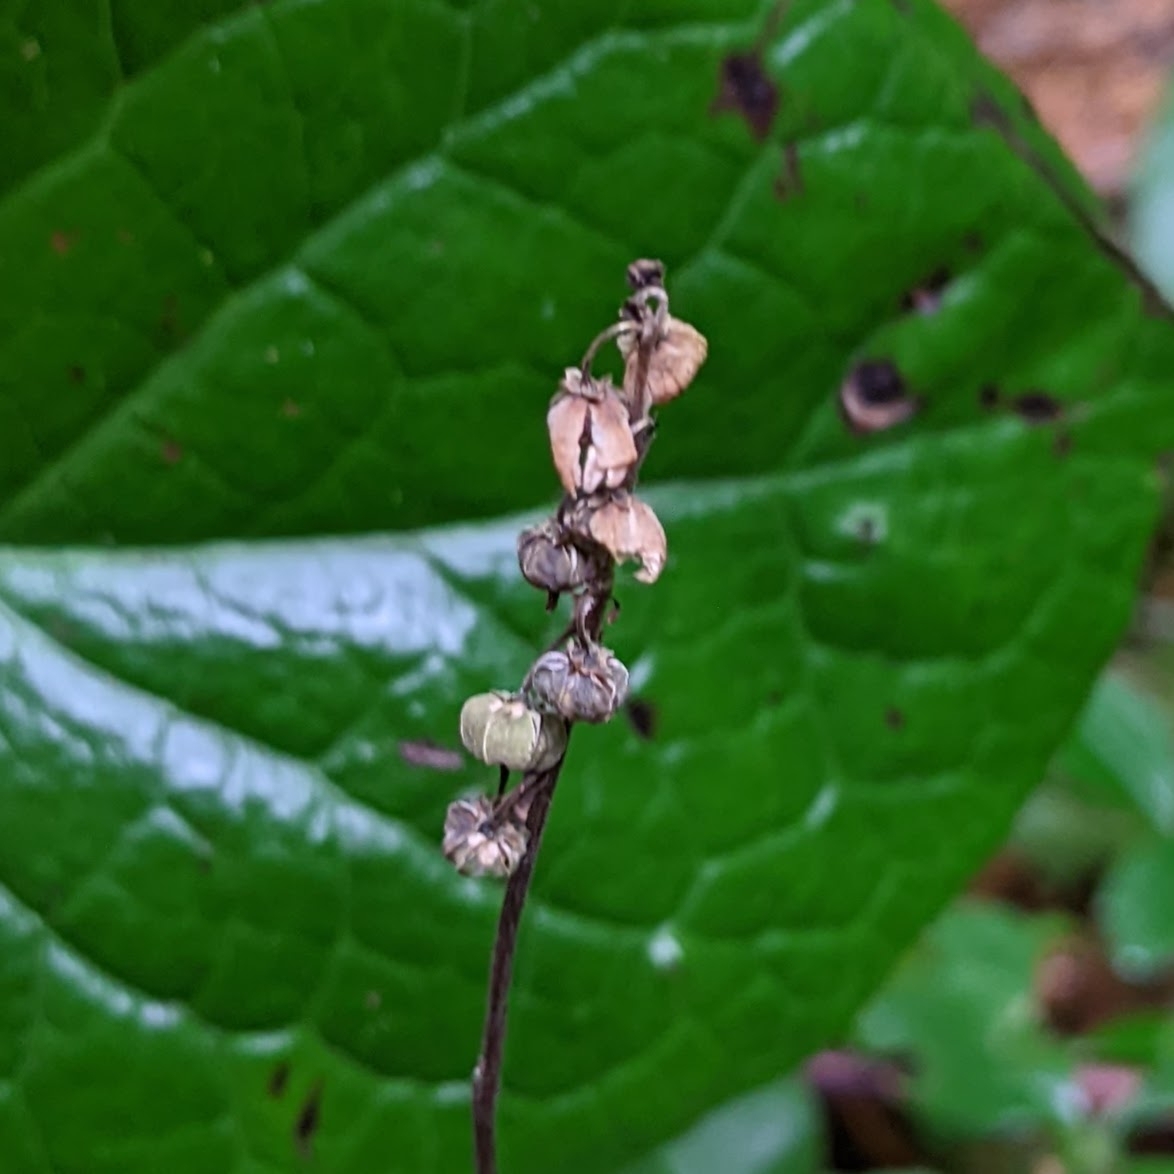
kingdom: Plantae
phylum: Tracheophyta
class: Magnoliopsida
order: Ericales
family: Ericaceae
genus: Orthilia
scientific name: Orthilia secunda
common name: One-sided orthilia
